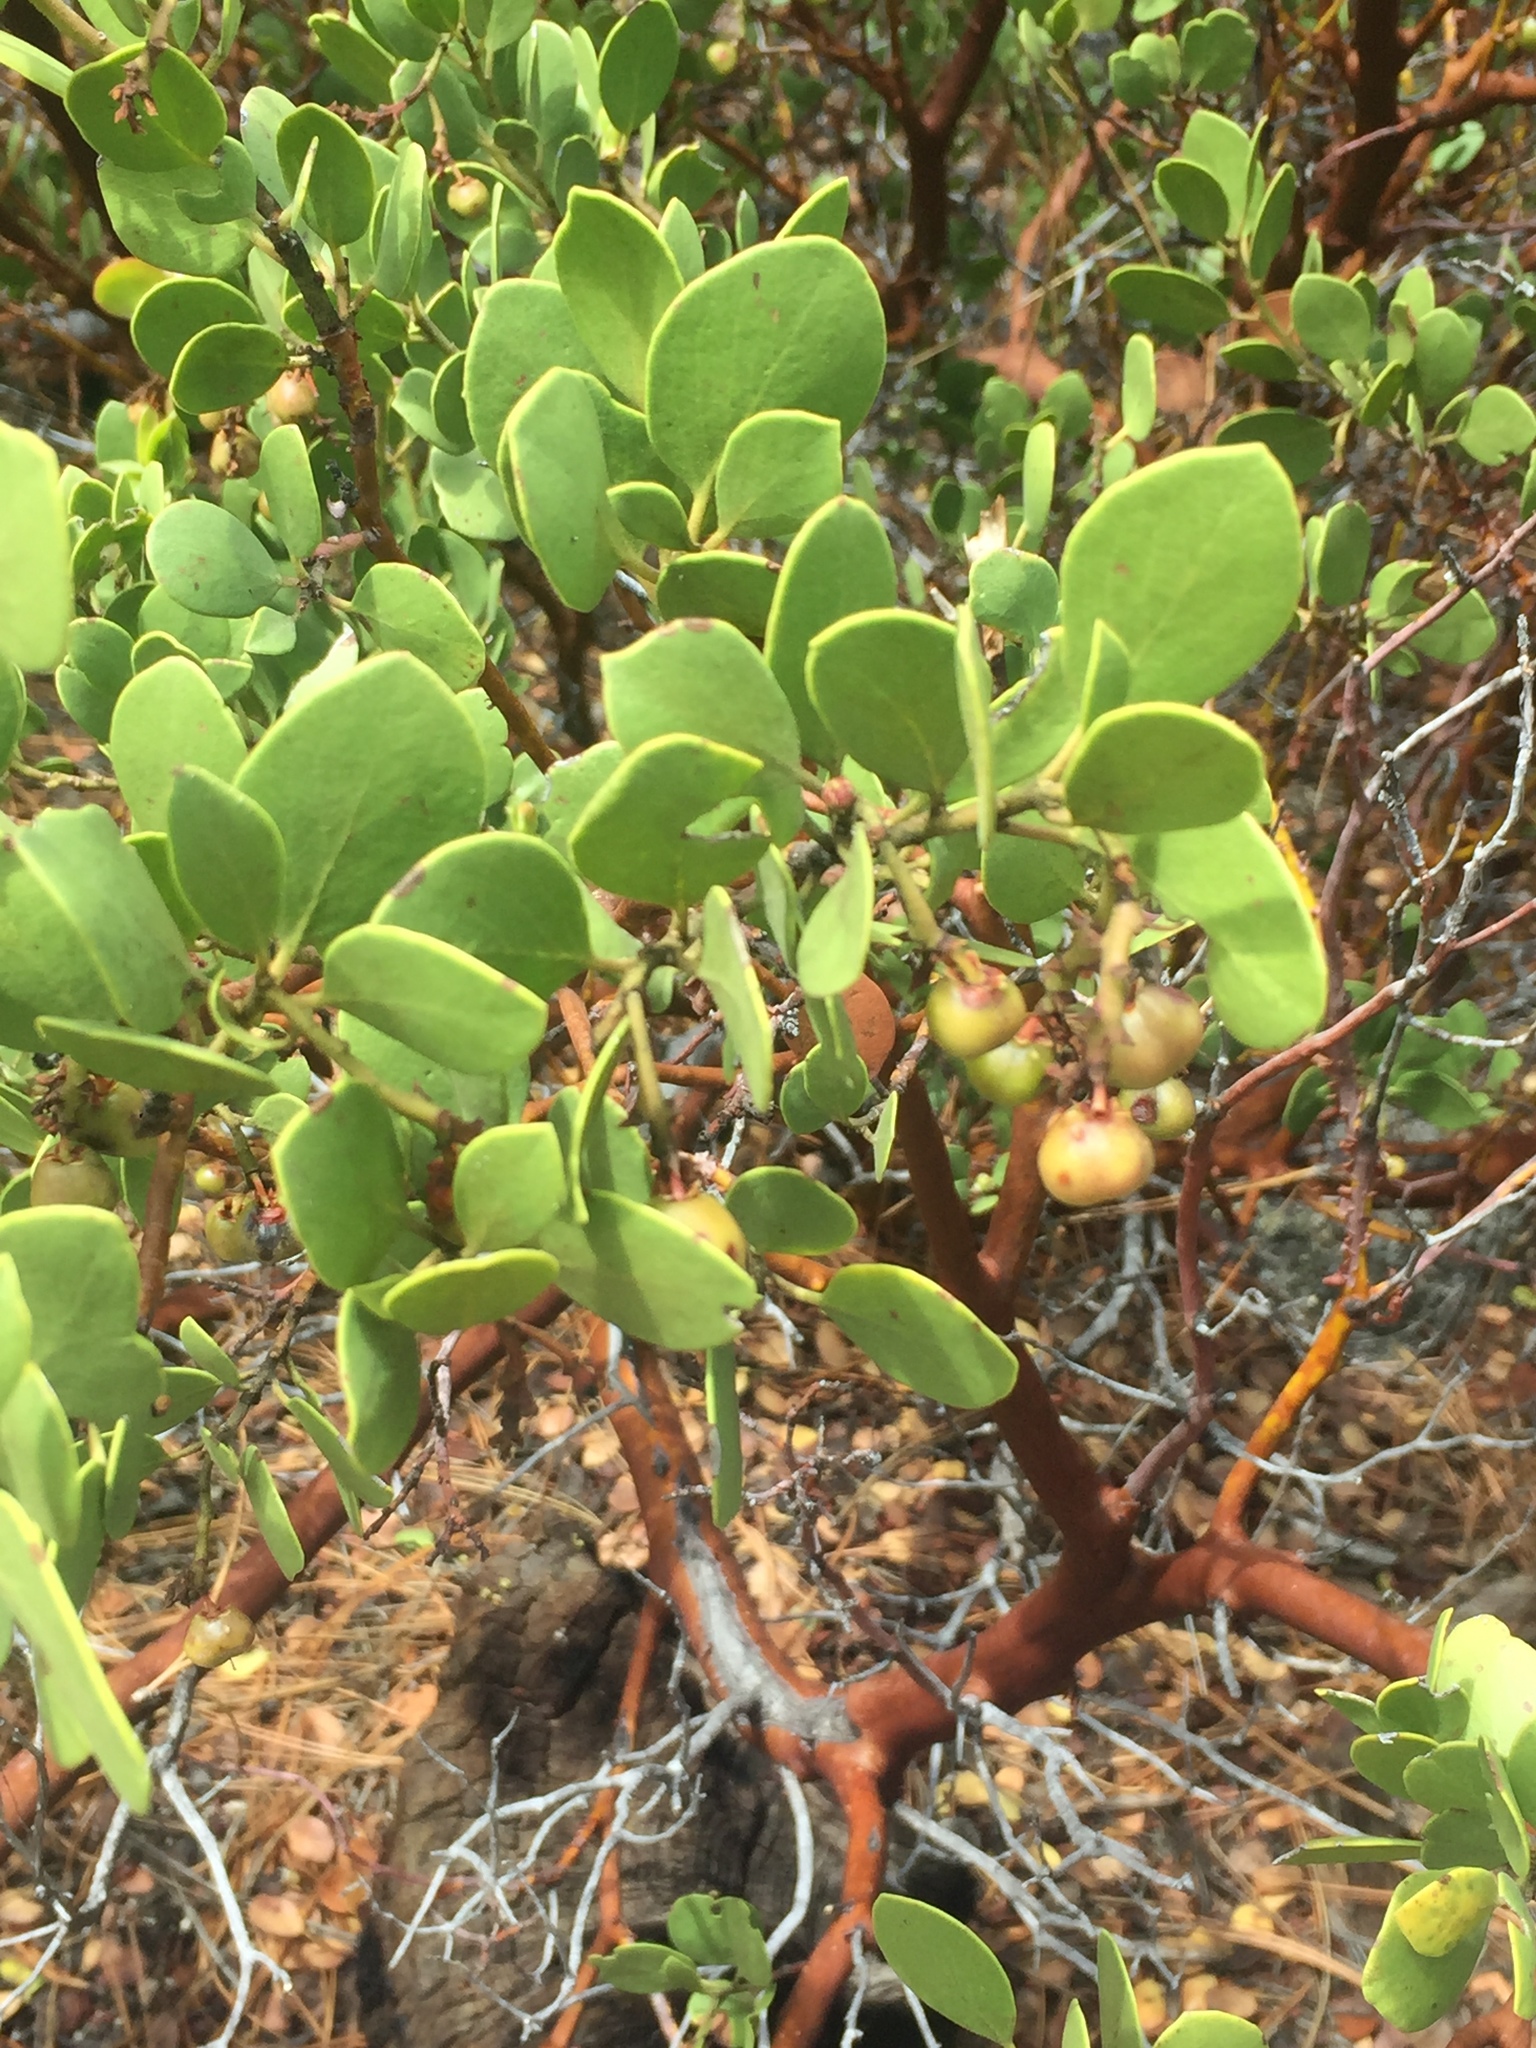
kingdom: Plantae
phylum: Tracheophyta
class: Magnoliopsida
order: Ericales
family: Ericaceae
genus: Arctostaphylos
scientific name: Arctostaphylos patula
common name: Green-leaf manzanita
